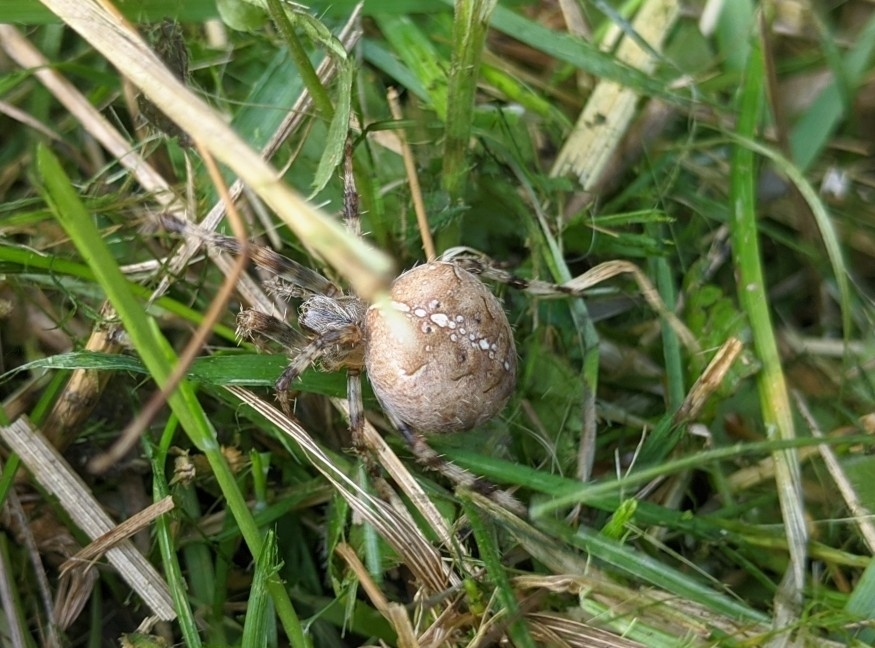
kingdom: Animalia
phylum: Arthropoda
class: Arachnida
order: Araneae
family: Araneidae
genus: Araneus
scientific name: Araneus diadematus
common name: Cross orbweaver
